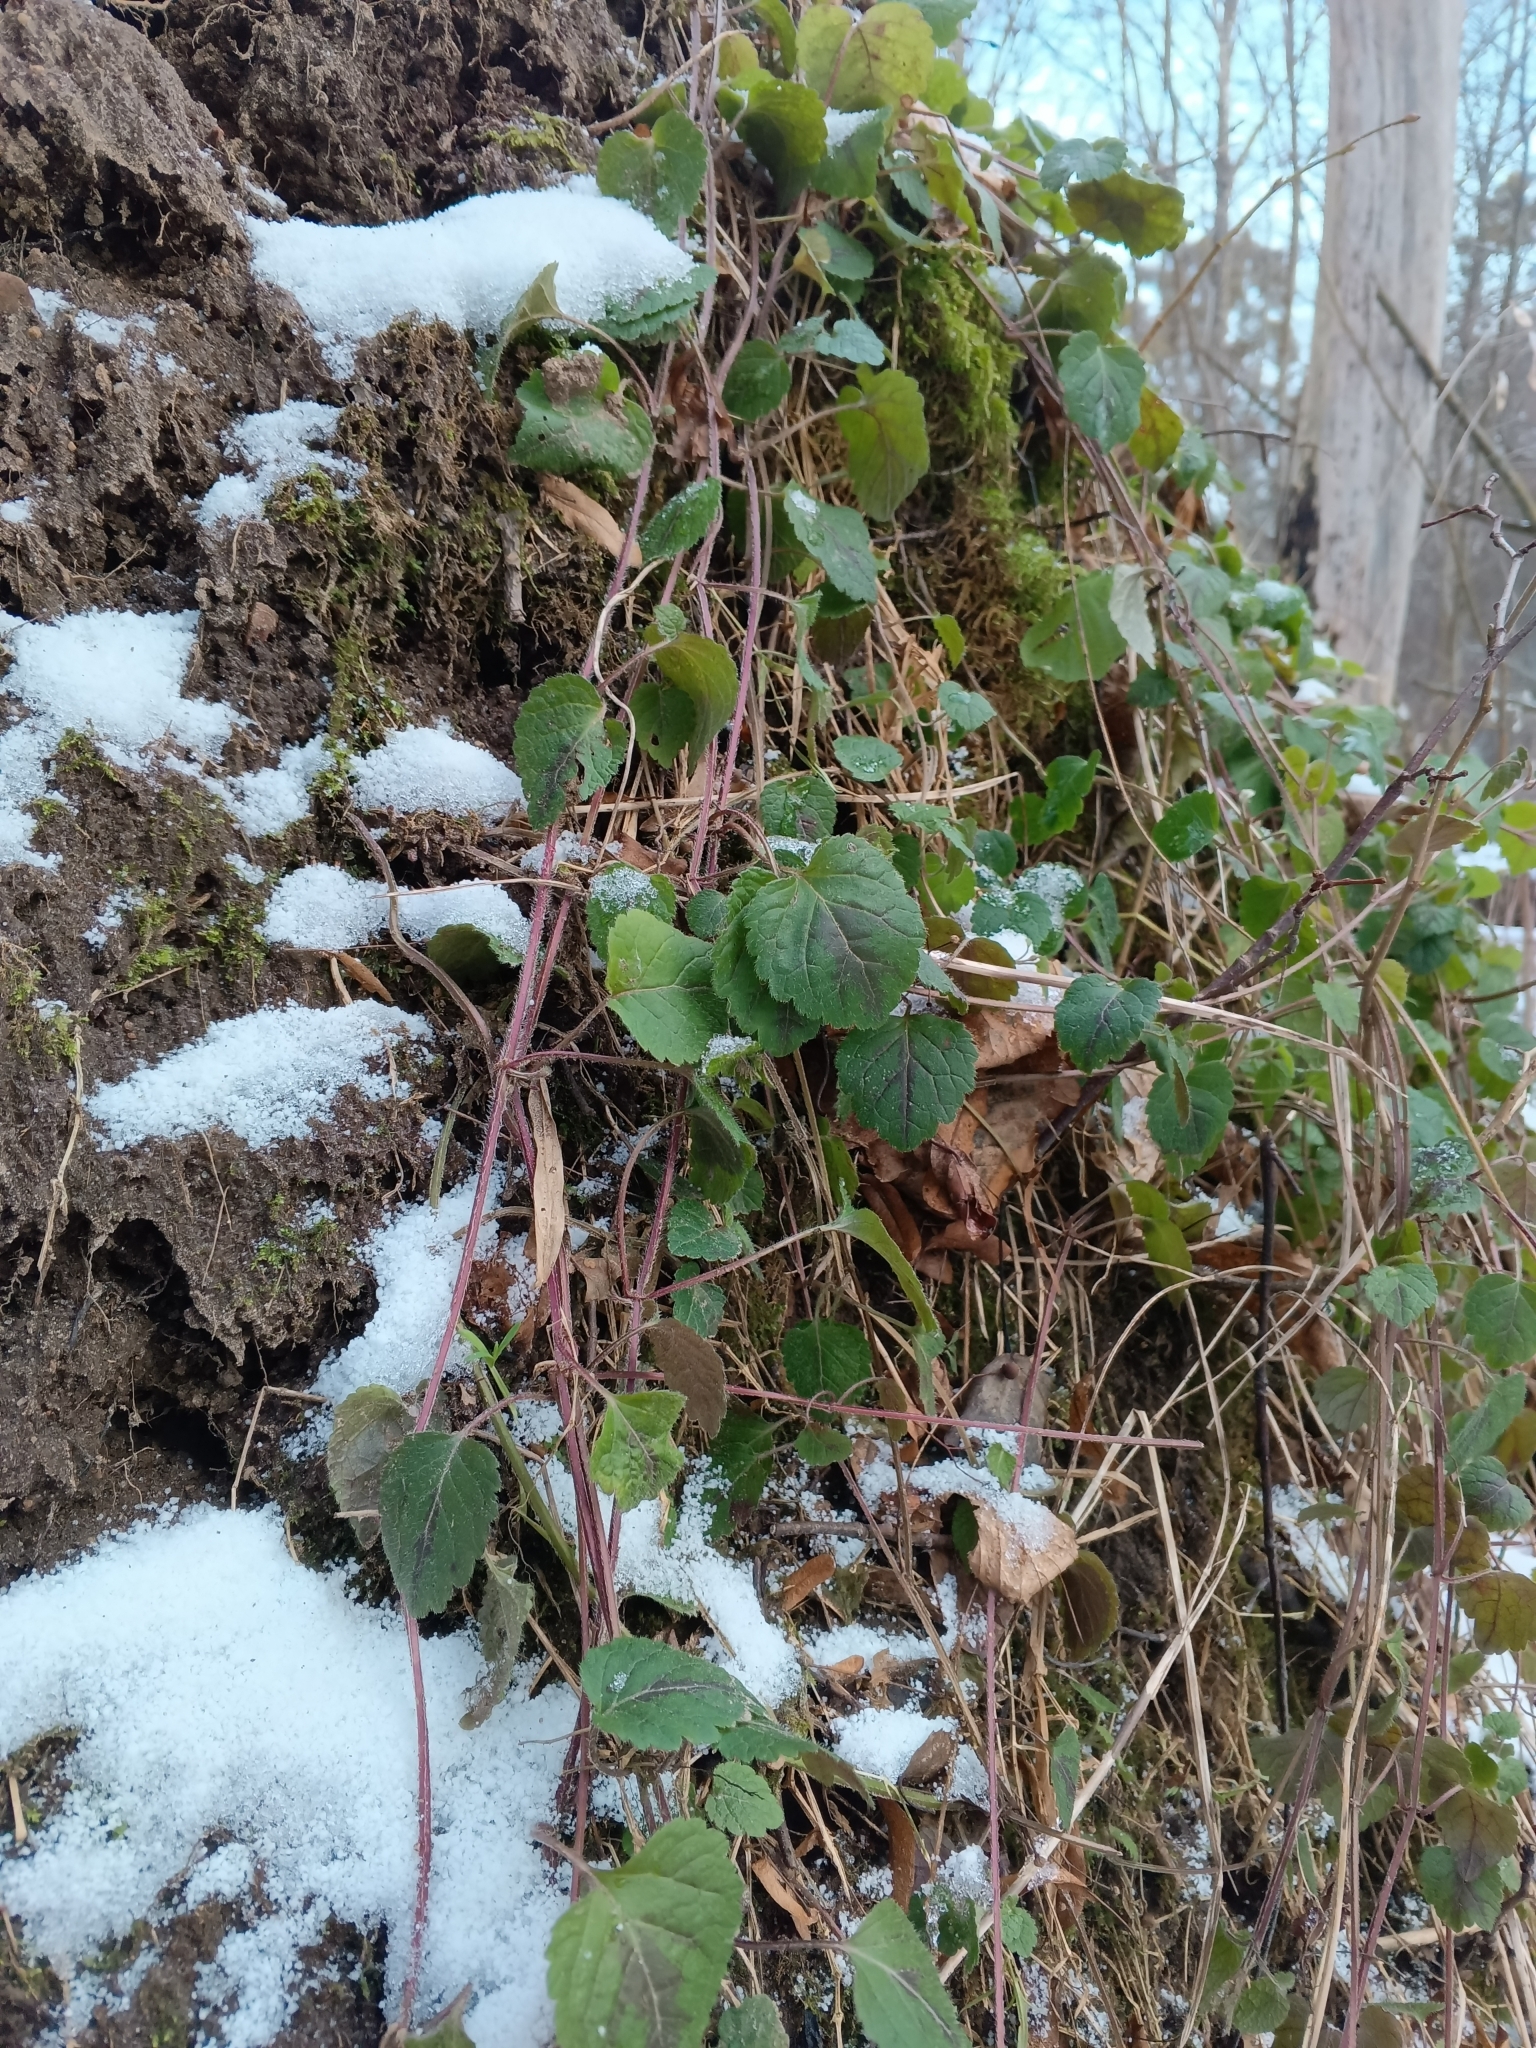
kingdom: Plantae
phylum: Tracheophyta
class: Magnoliopsida
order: Lamiales
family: Lamiaceae
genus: Lamium
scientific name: Lamium galeobdolon
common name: Yellow archangel
